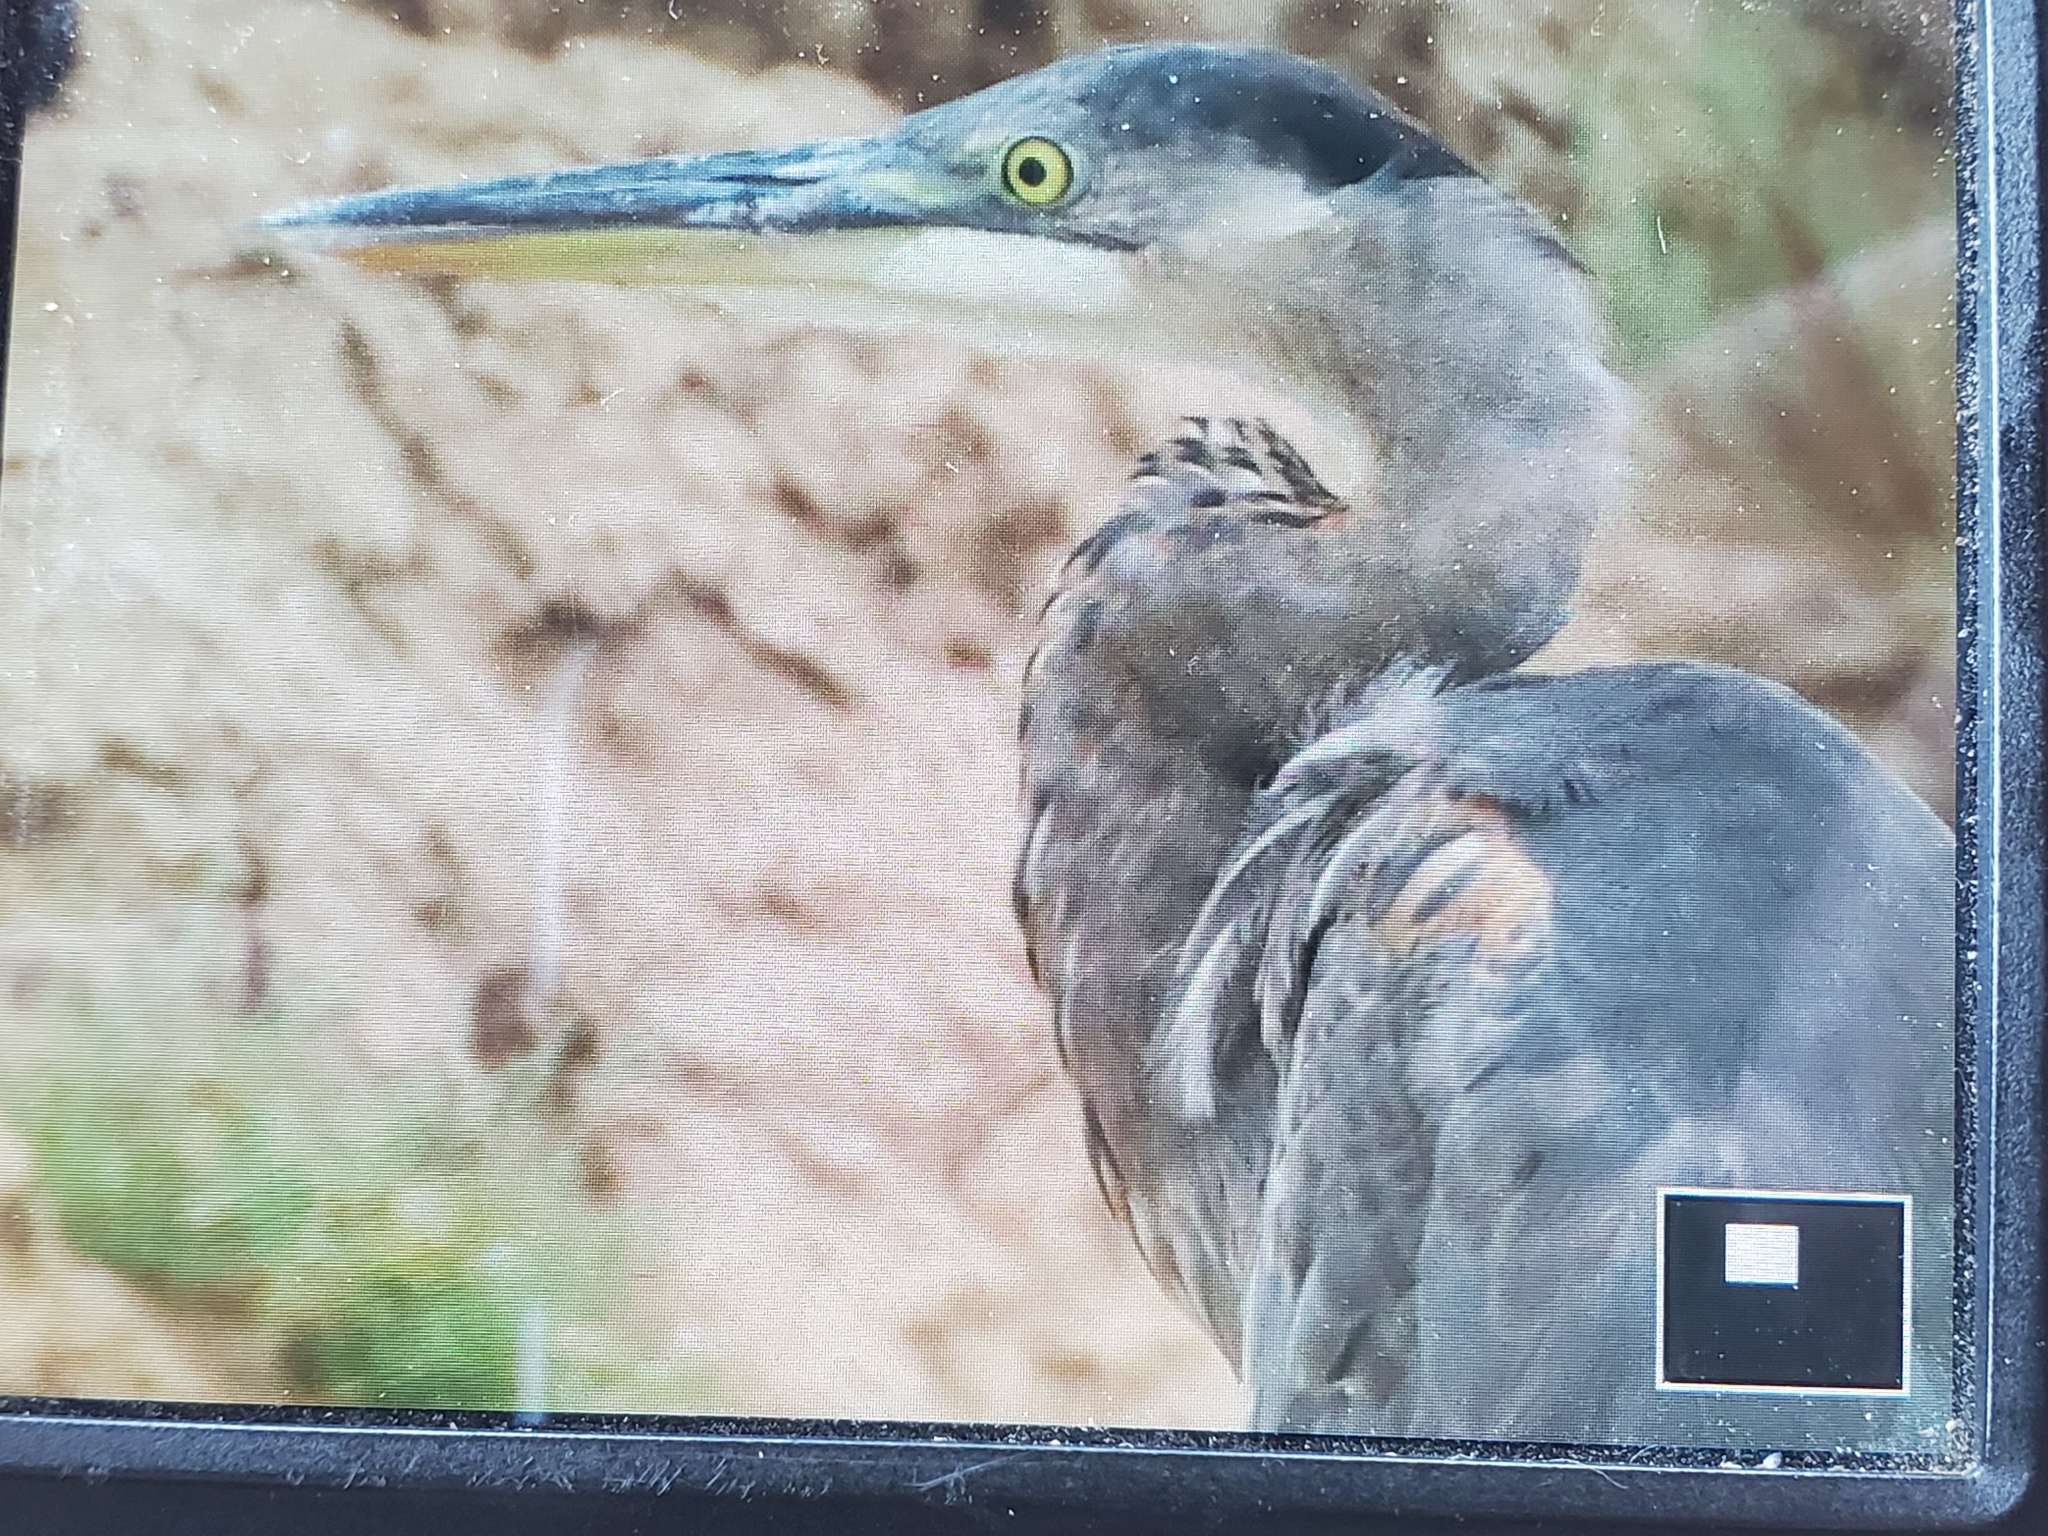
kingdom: Animalia
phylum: Chordata
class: Aves
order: Pelecaniformes
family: Ardeidae
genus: Ardea
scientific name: Ardea herodias
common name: Great blue heron
